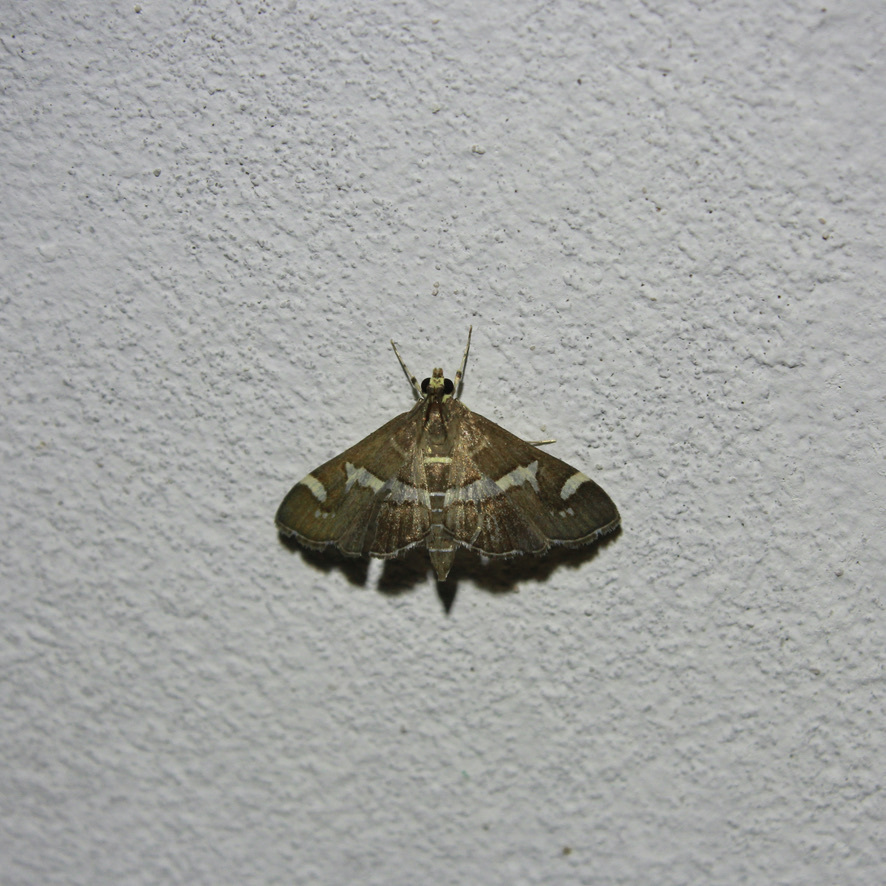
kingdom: Animalia
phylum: Arthropoda
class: Insecta
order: Lepidoptera
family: Crambidae
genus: Spoladea
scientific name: Spoladea recurvalis
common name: Beet webworm moth
